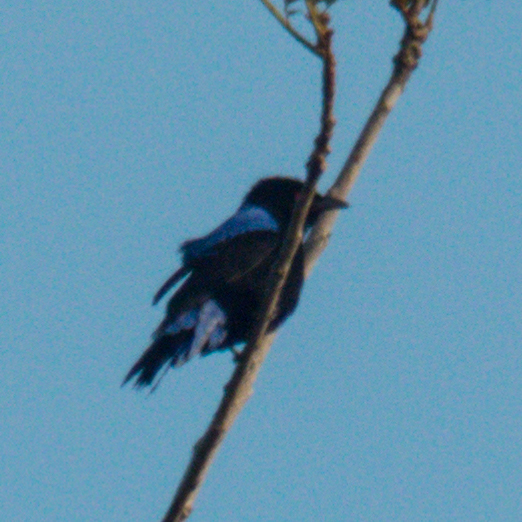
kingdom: Animalia
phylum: Chordata
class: Aves
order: Passeriformes
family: Irenidae
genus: Irena
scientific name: Irena puella
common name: Asian fairy-bluebird
